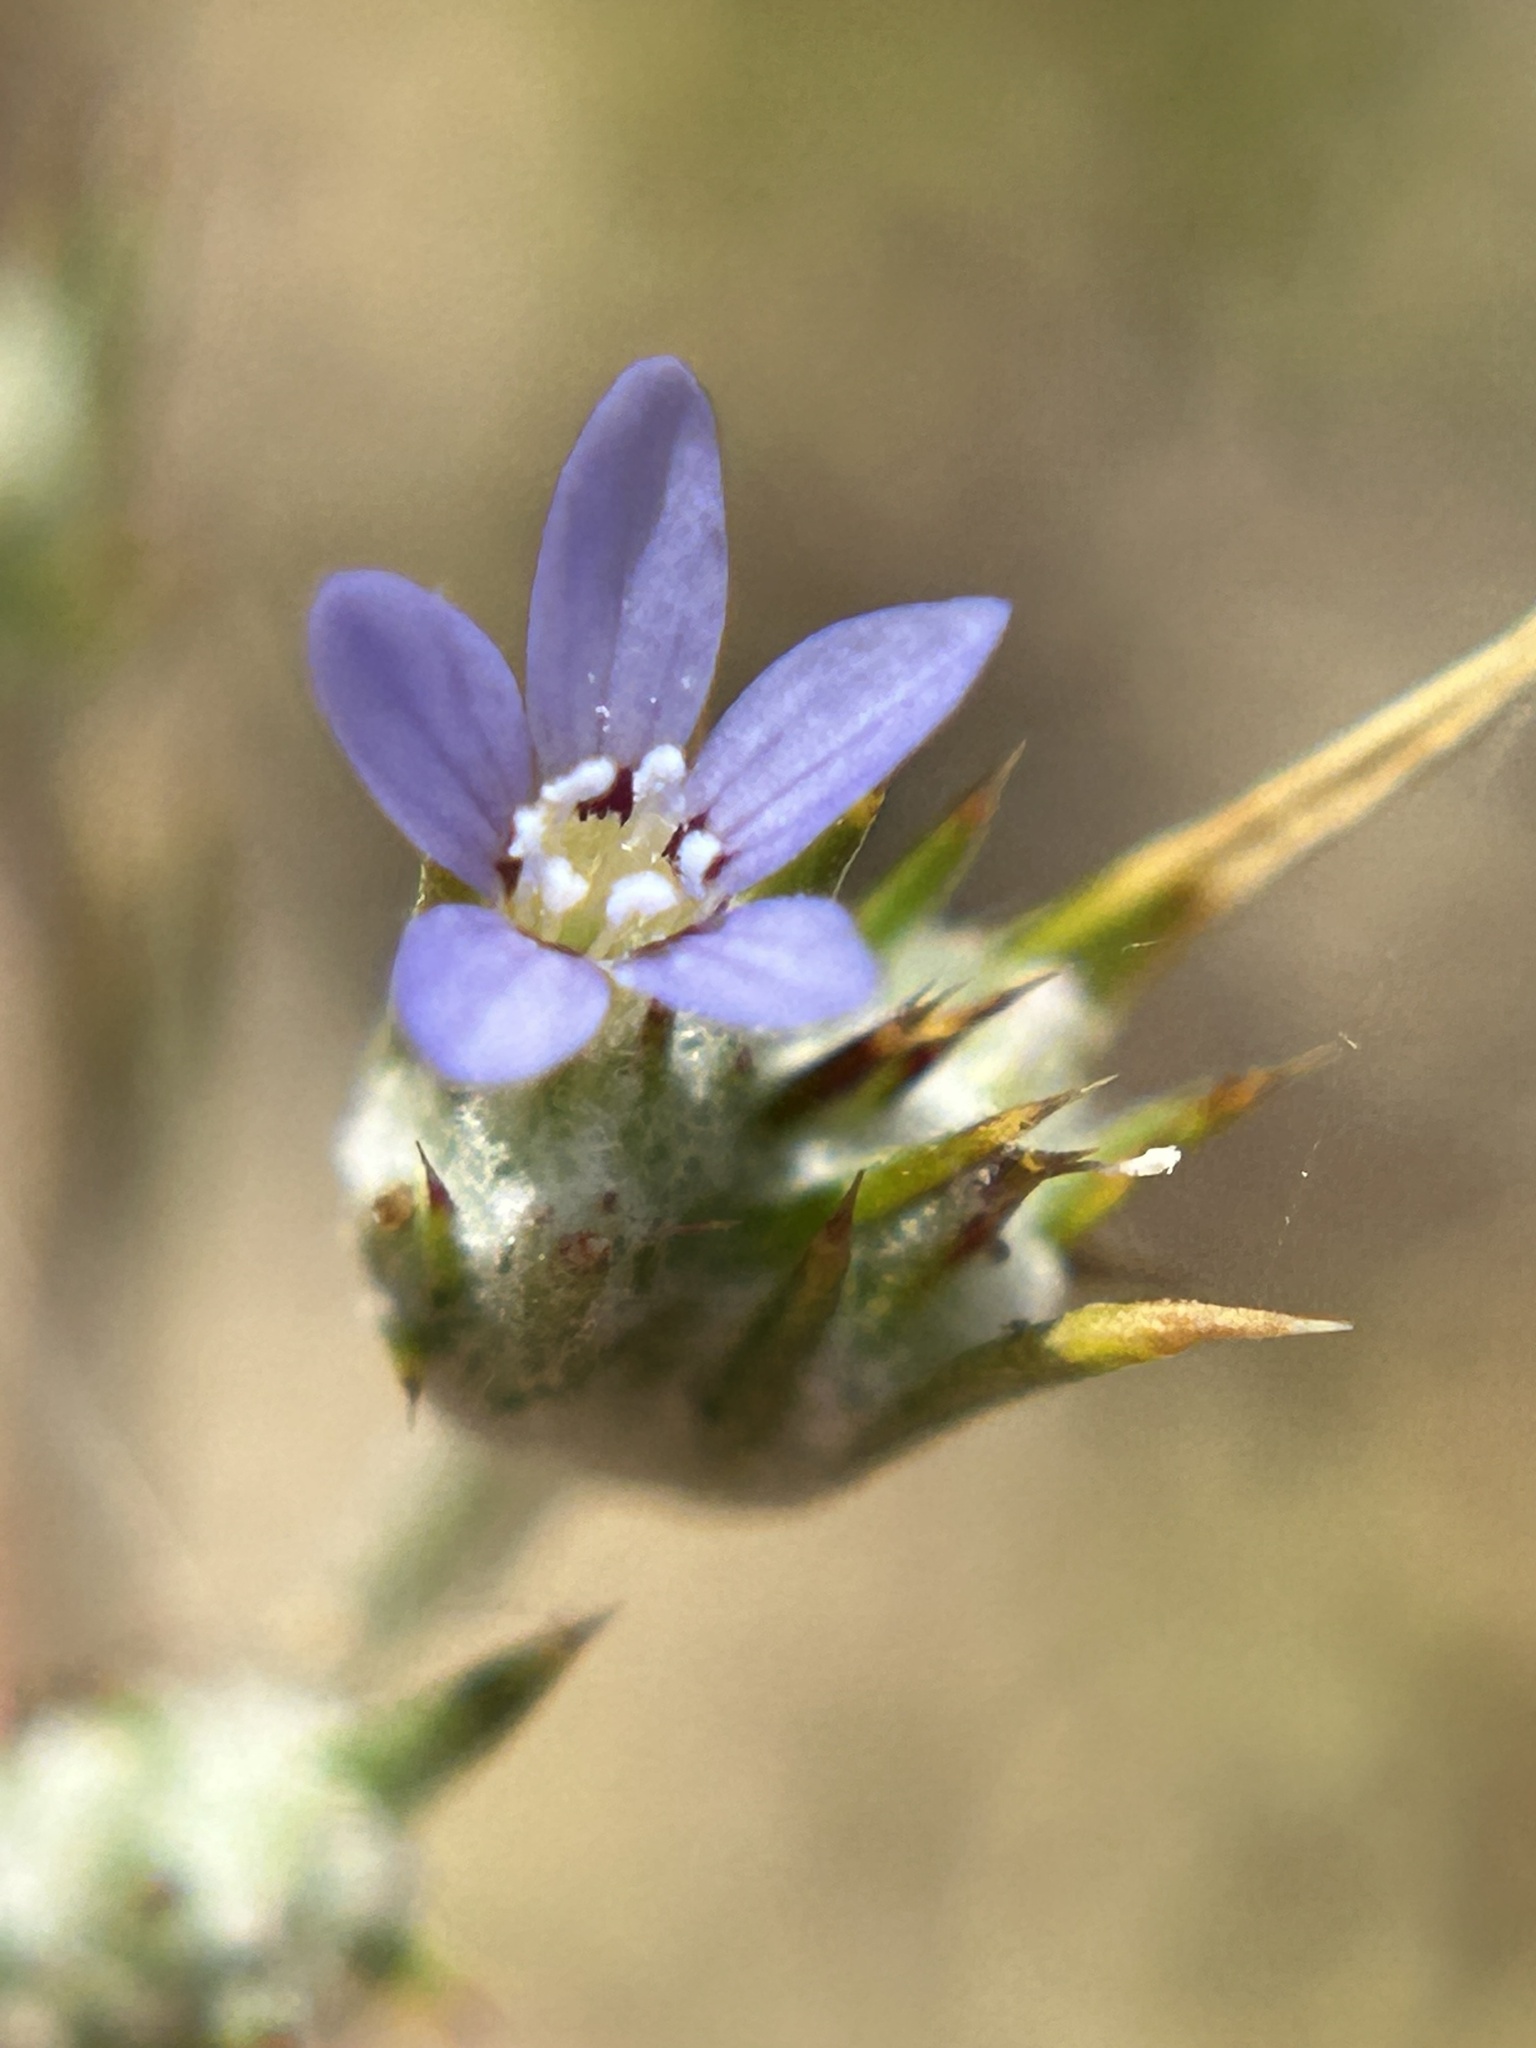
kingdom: Plantae
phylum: Tracheophyta
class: Magnoliopsida
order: Ericales
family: Polemoniaceae
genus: Eriastrum
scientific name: Eriastrum calocyanum
